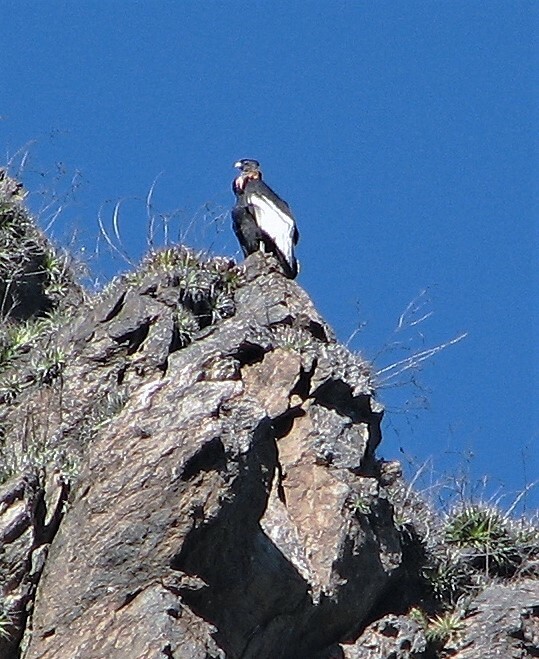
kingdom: Animalia
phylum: Chordata
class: Aves
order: Accipitriformes
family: Cathartidae
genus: Vultur
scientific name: Vultur gryphus
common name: Andean condor
